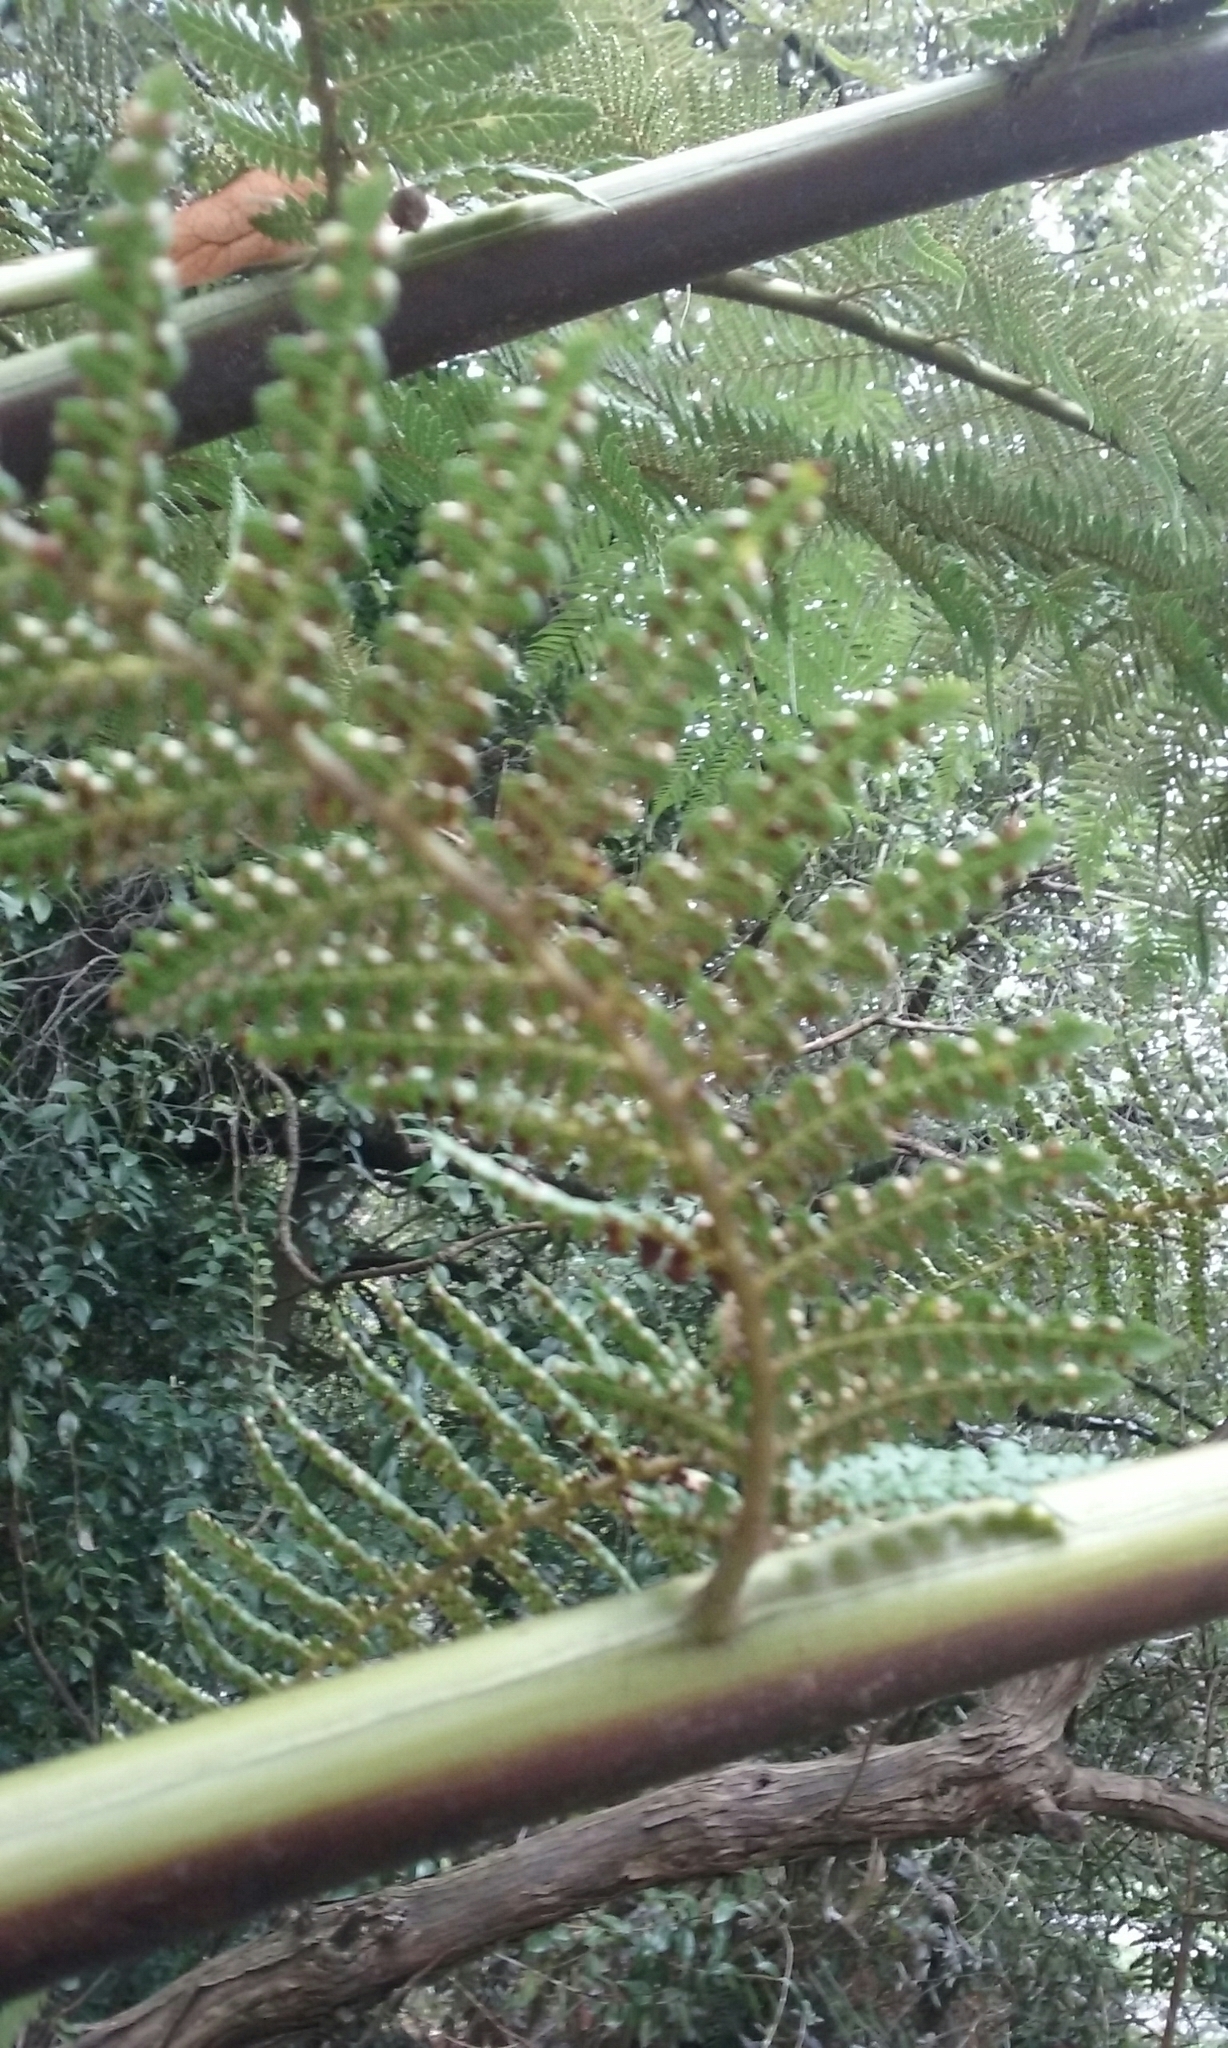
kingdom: Plantae
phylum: Tracheophyta
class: Polypodiopsida
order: Cyatheales
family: Dicksoniaceae
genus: Dicksonia
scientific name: Dicksonia fibrosa
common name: Golden tree fern
